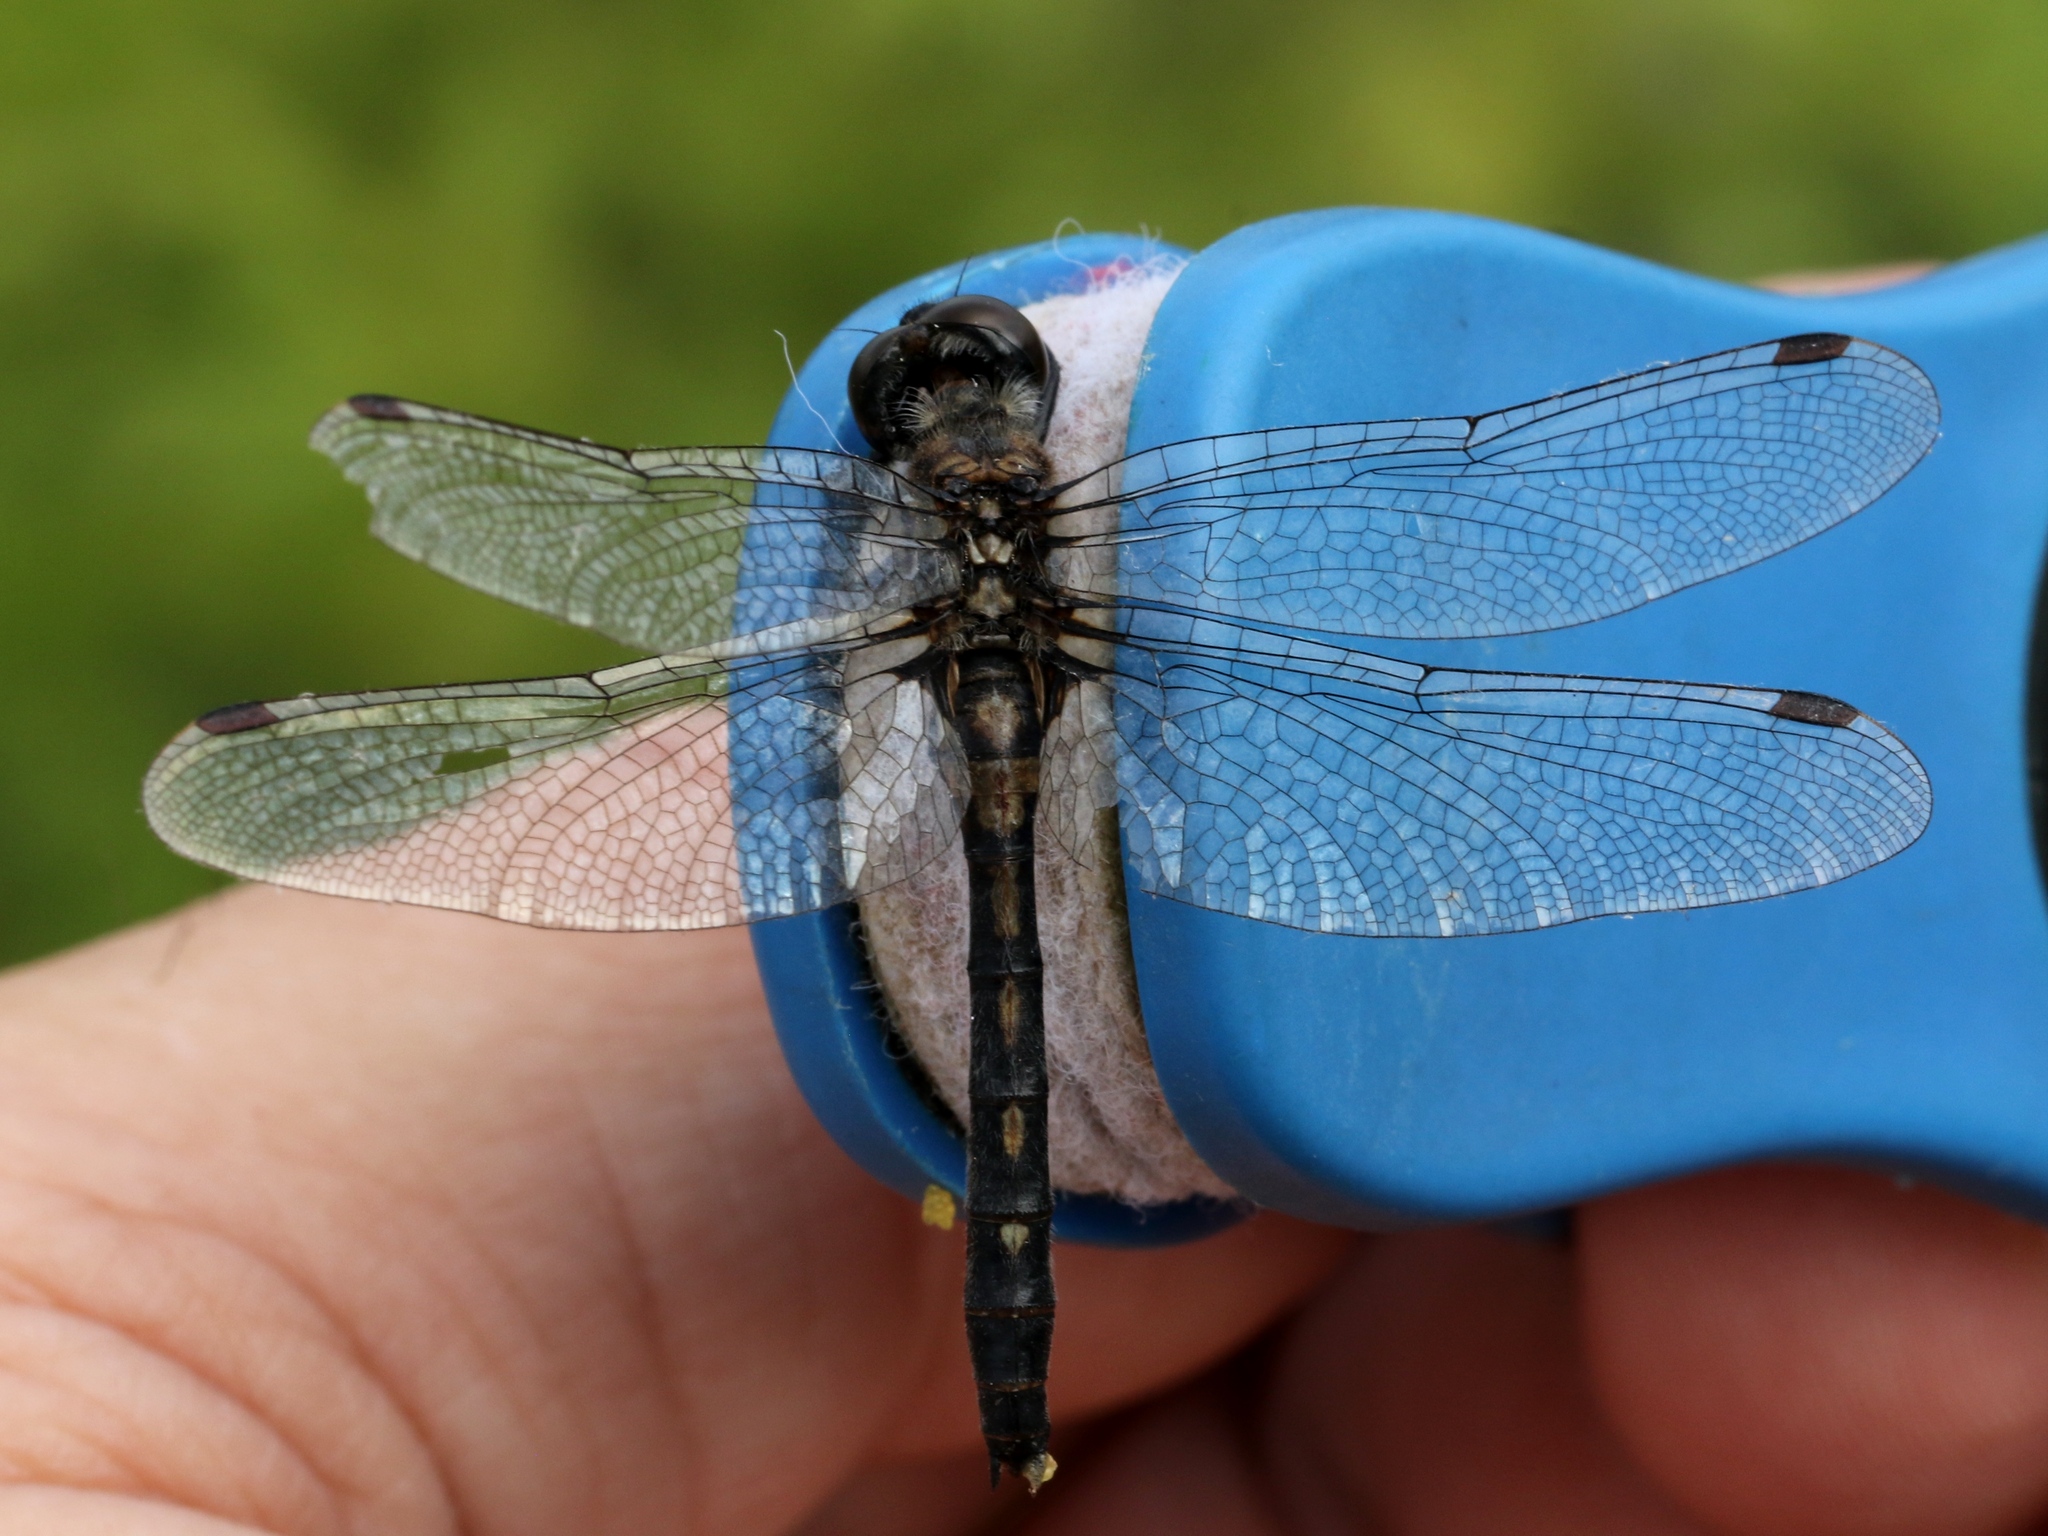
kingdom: Animalia
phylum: Arthropoda
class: Insecta
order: Odonata
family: Libellulidae
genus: Leucorrhinia
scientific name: Leucorrhinia glacialis
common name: Crimson-ringed whiteface
